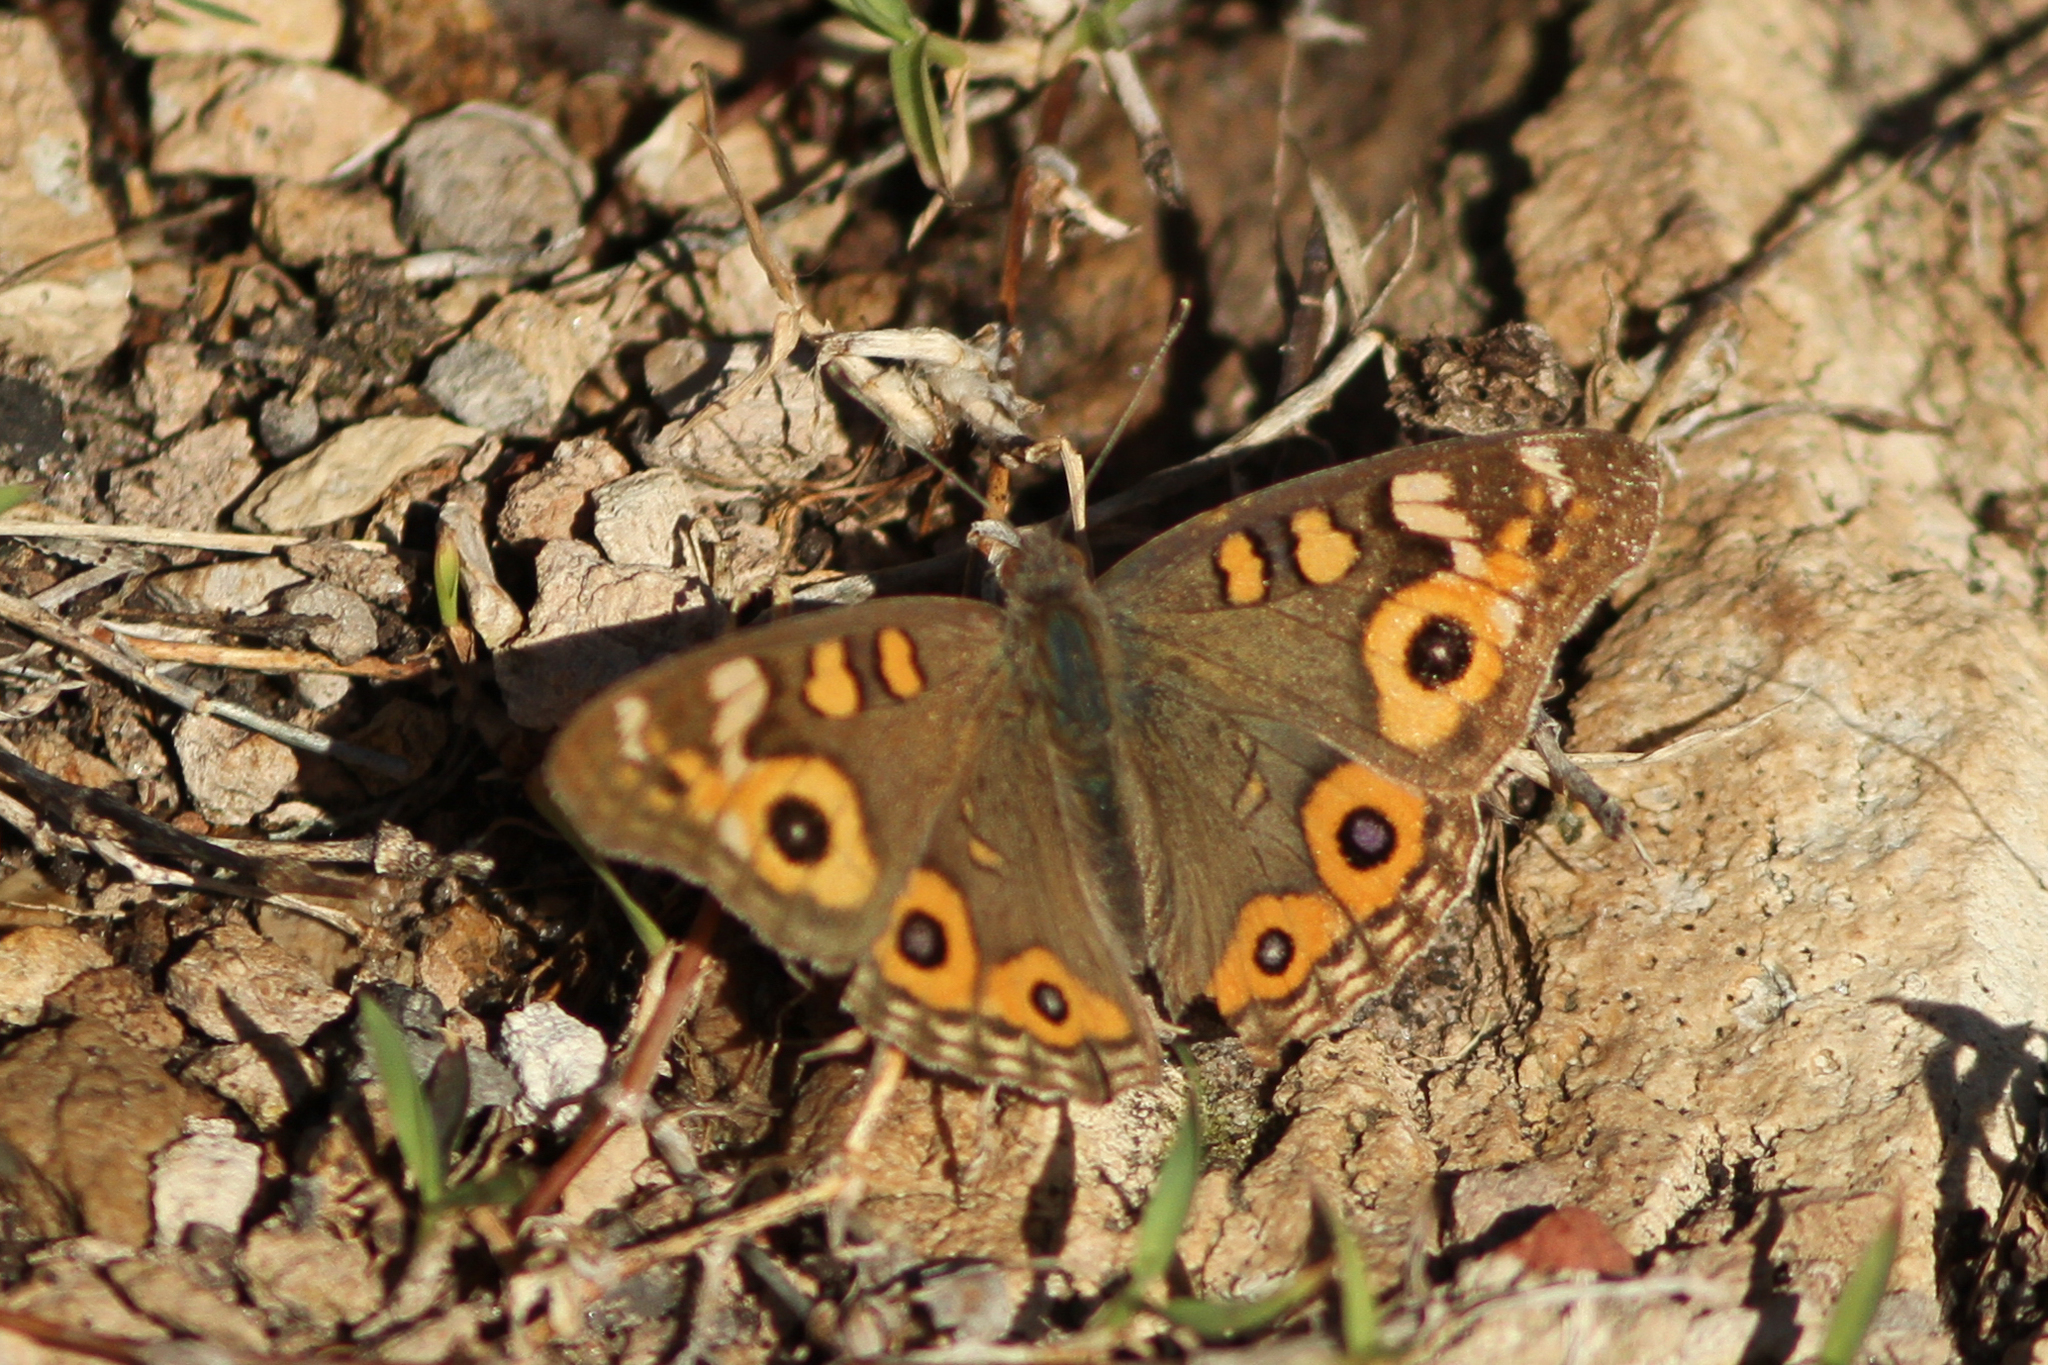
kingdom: Animalia
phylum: Arthropoda
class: Insecta
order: Lepidoptera
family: Nymphalidae
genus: Junonia
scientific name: Junonia villida
